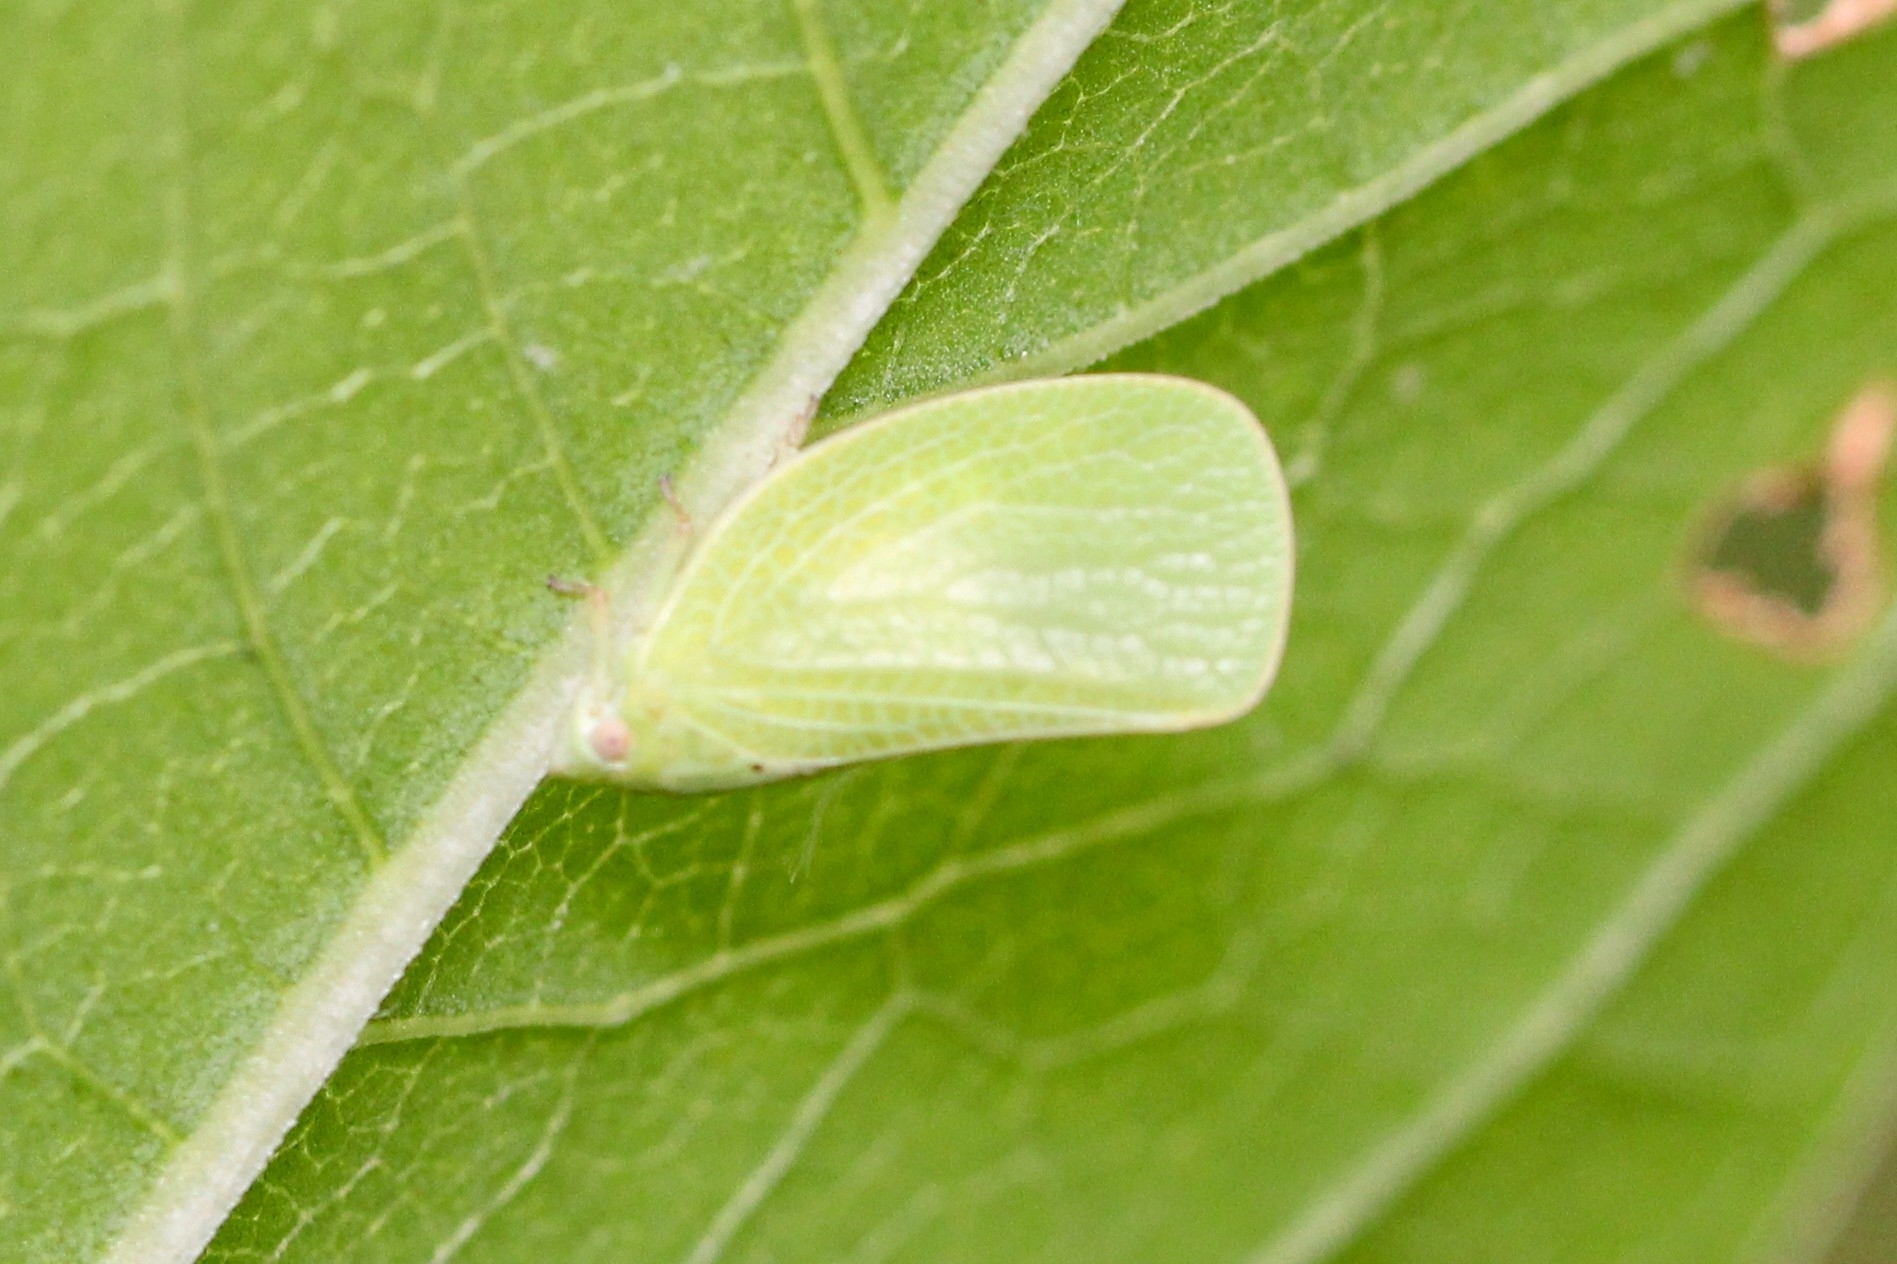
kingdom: Animalia
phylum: Arthropoda
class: Insecta
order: Hemiptera
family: Acanaloniidae
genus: Acanalonia
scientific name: Acanalonia conica
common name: Green cone-headed planthopper
